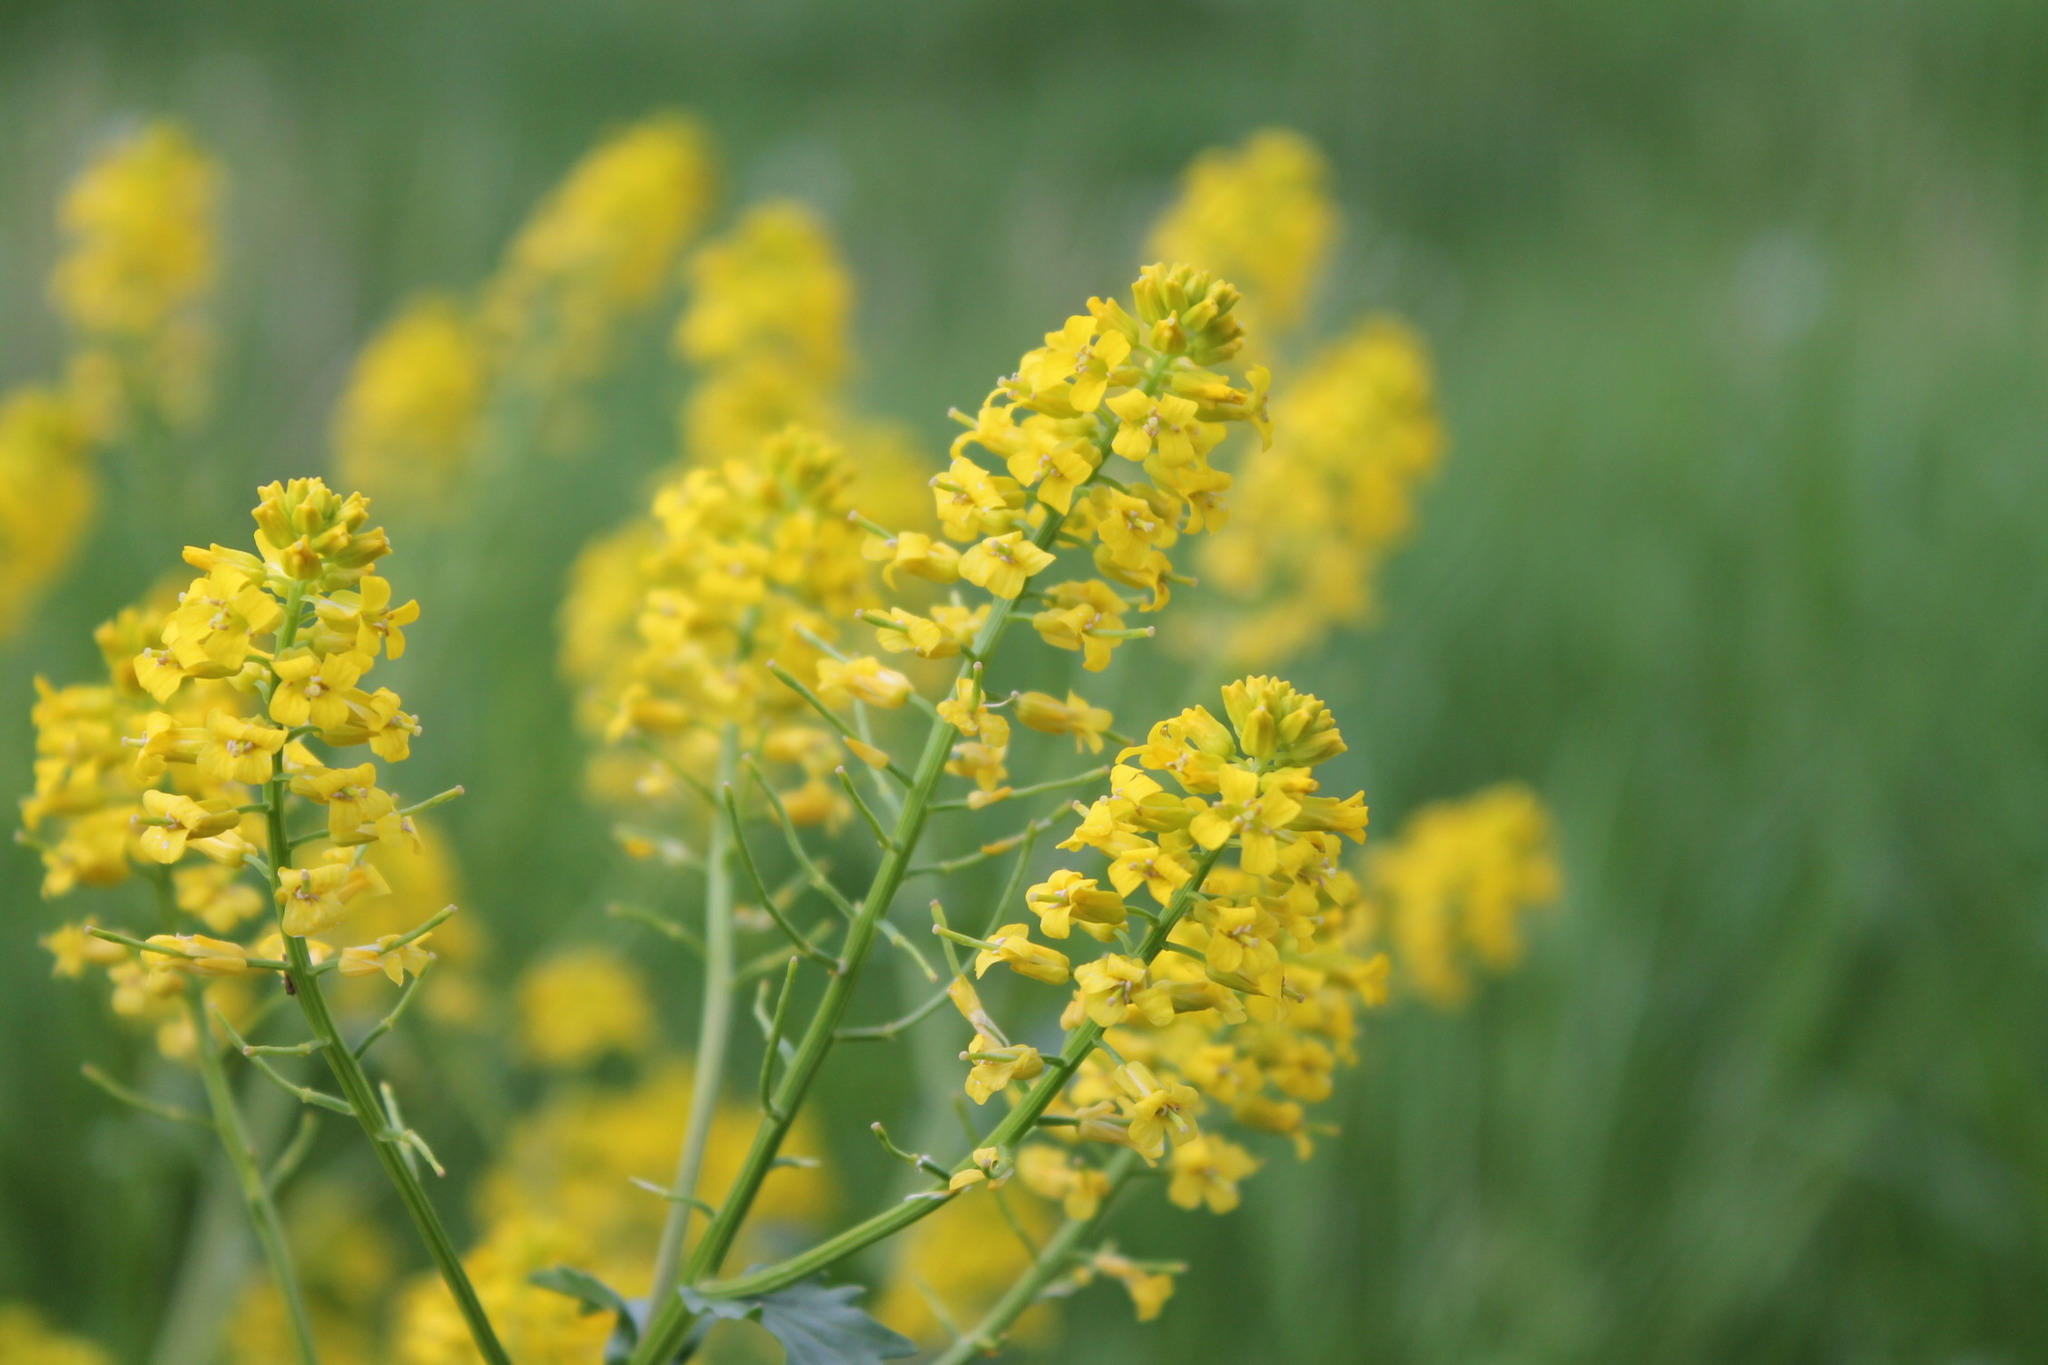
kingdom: Plantae
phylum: Tracheophyta
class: Magnoliopsida
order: Brassicales
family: Brassicaceae
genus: Barbarea
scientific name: Barbarea vulgaris
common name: Cressy-greens
